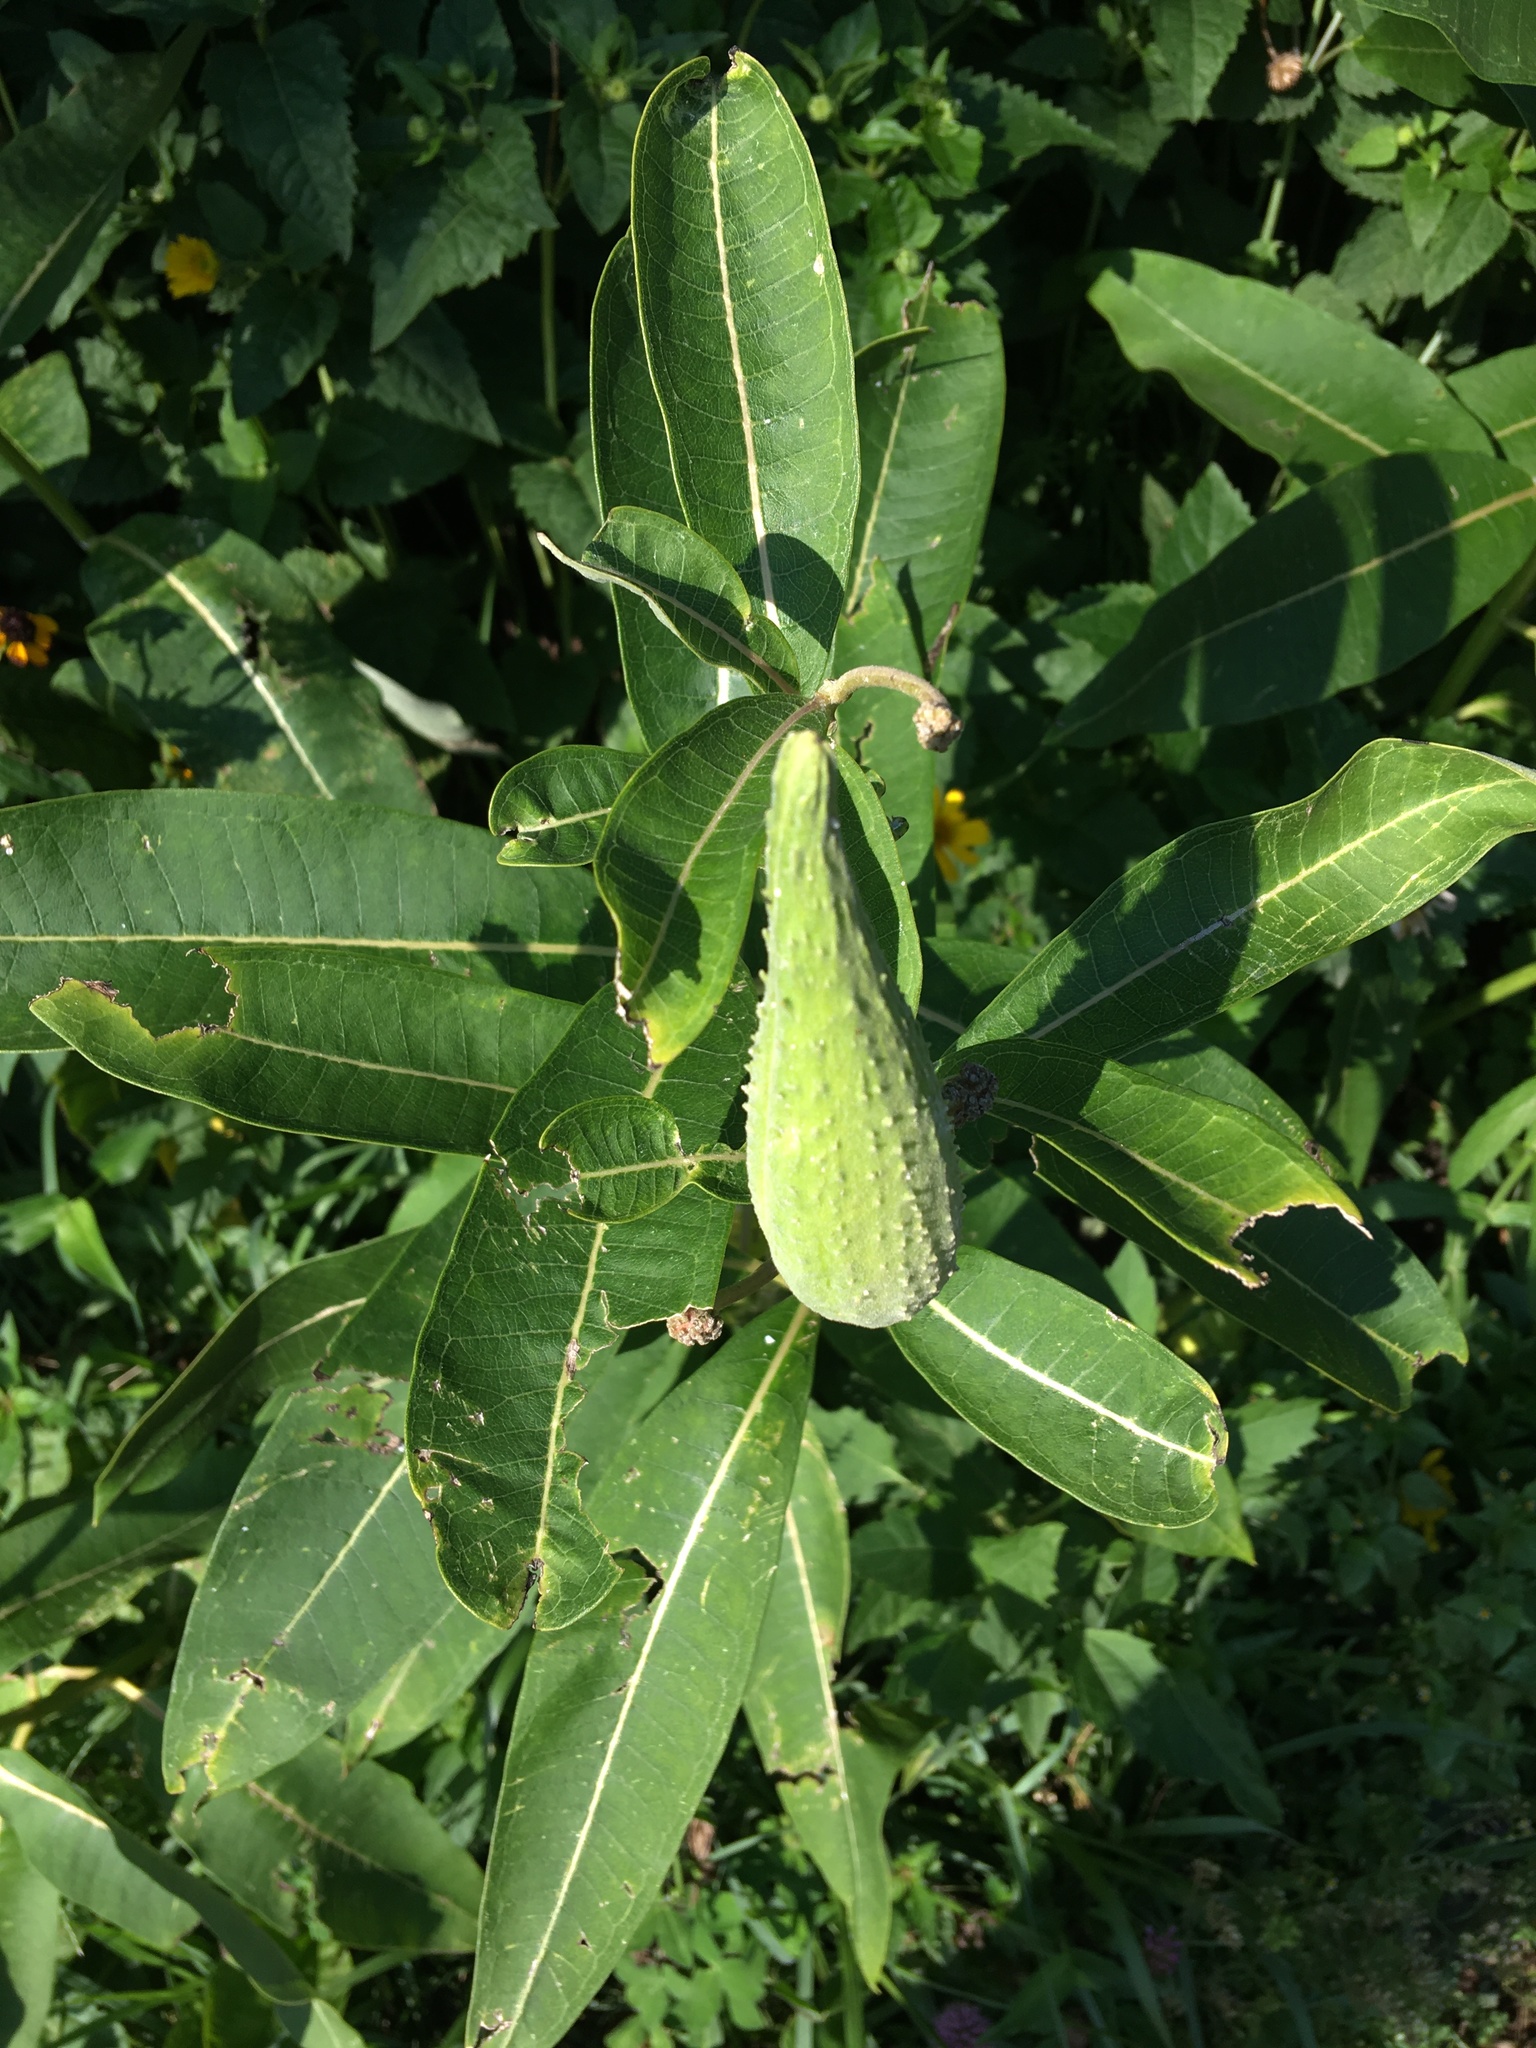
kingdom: Plantae
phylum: Tracheophyta
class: Magnoliopsida
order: Gentianales
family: Apocynaceae
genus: Asclepias
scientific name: Asclepias syriaca
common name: Common milkweed
